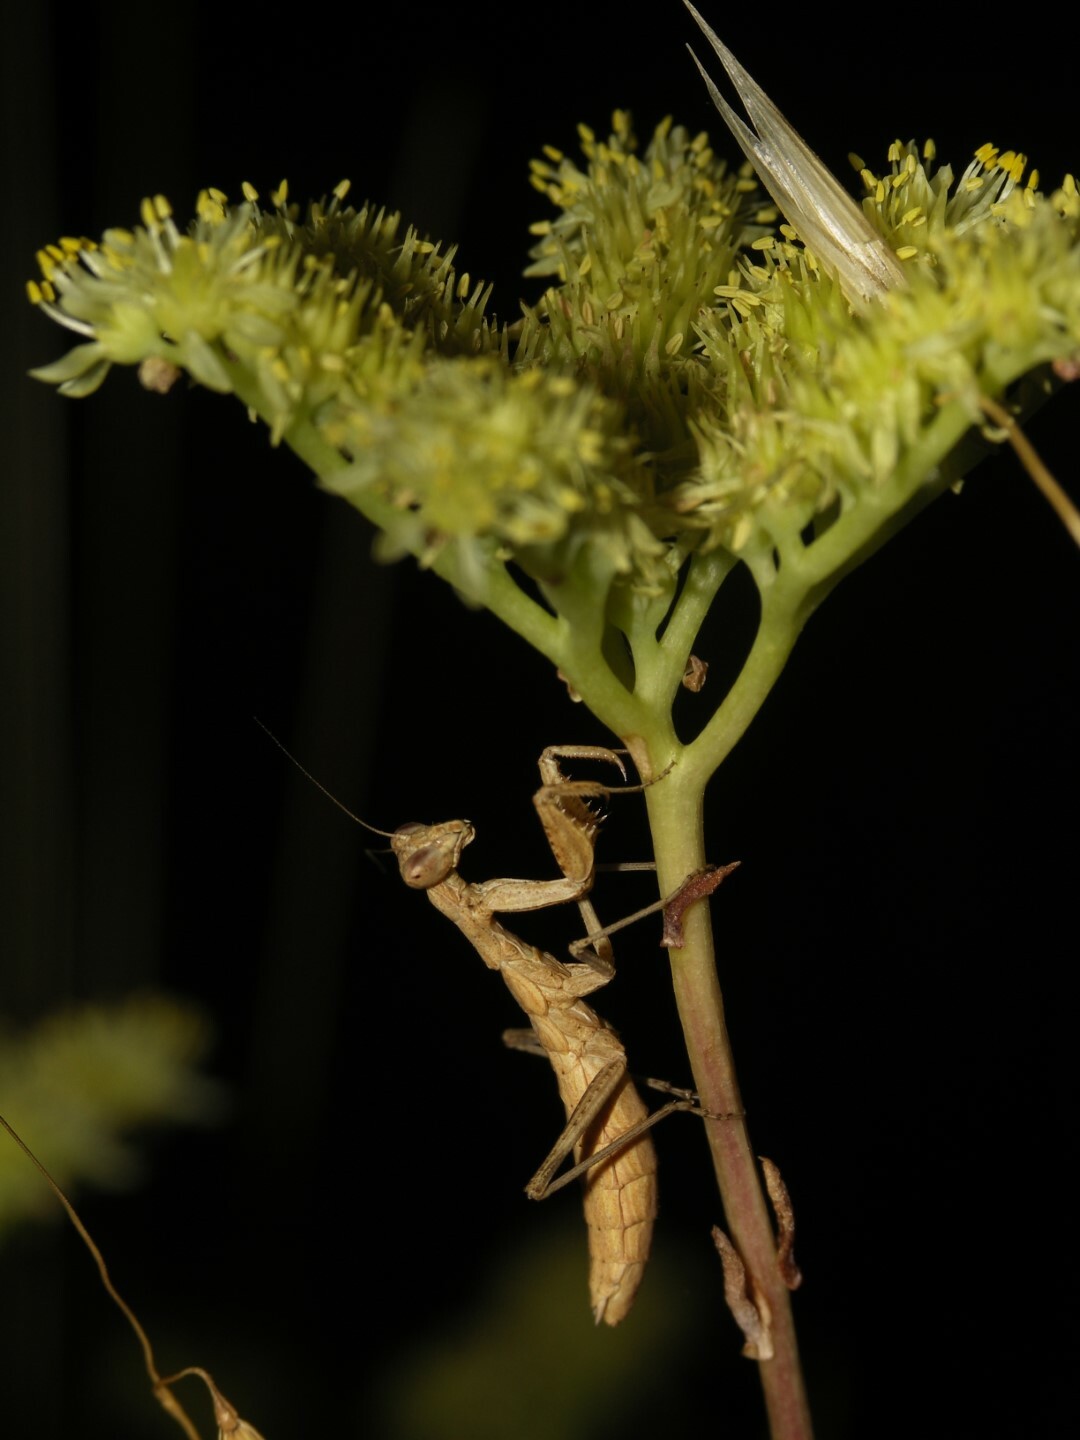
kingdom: Animalia
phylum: Arthropoda
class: Insecta
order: Mantodea
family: Amelidae
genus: Ameles
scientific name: Ameles decolor
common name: Dwarf mantis
